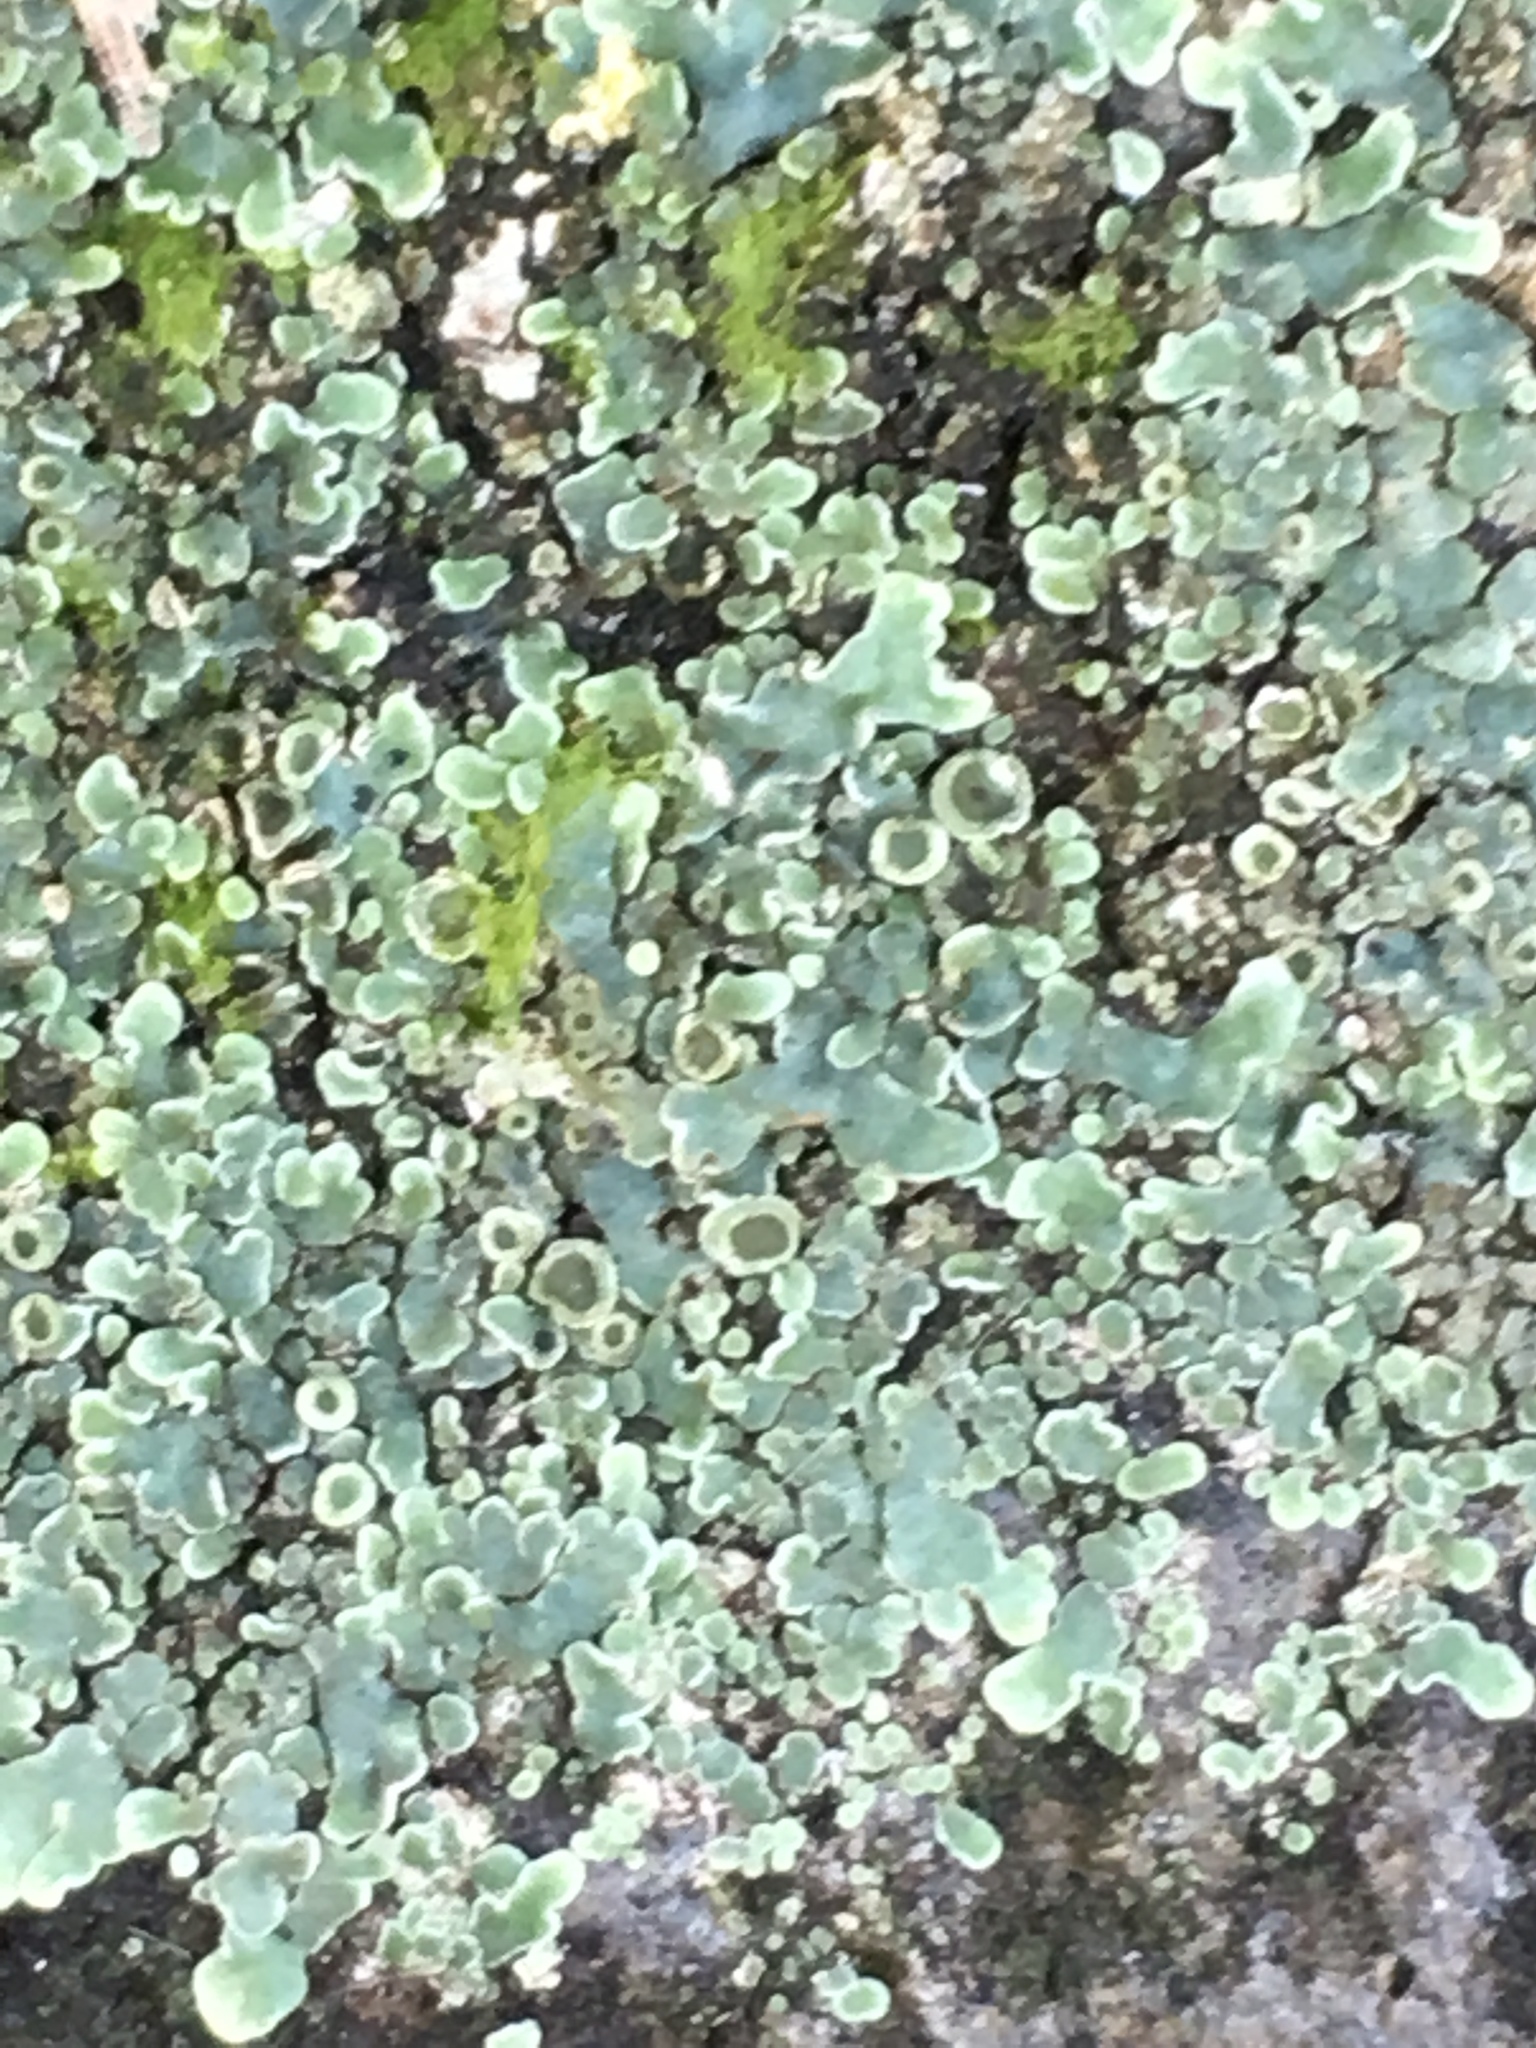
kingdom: Fungi
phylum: Ascomycota
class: Lecanoromycetes
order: Lecanorales
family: Lecanoraceae
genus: Protoparmeliopsis
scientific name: Protoparmeliopsis muralis
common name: Stonewall rim lichen
